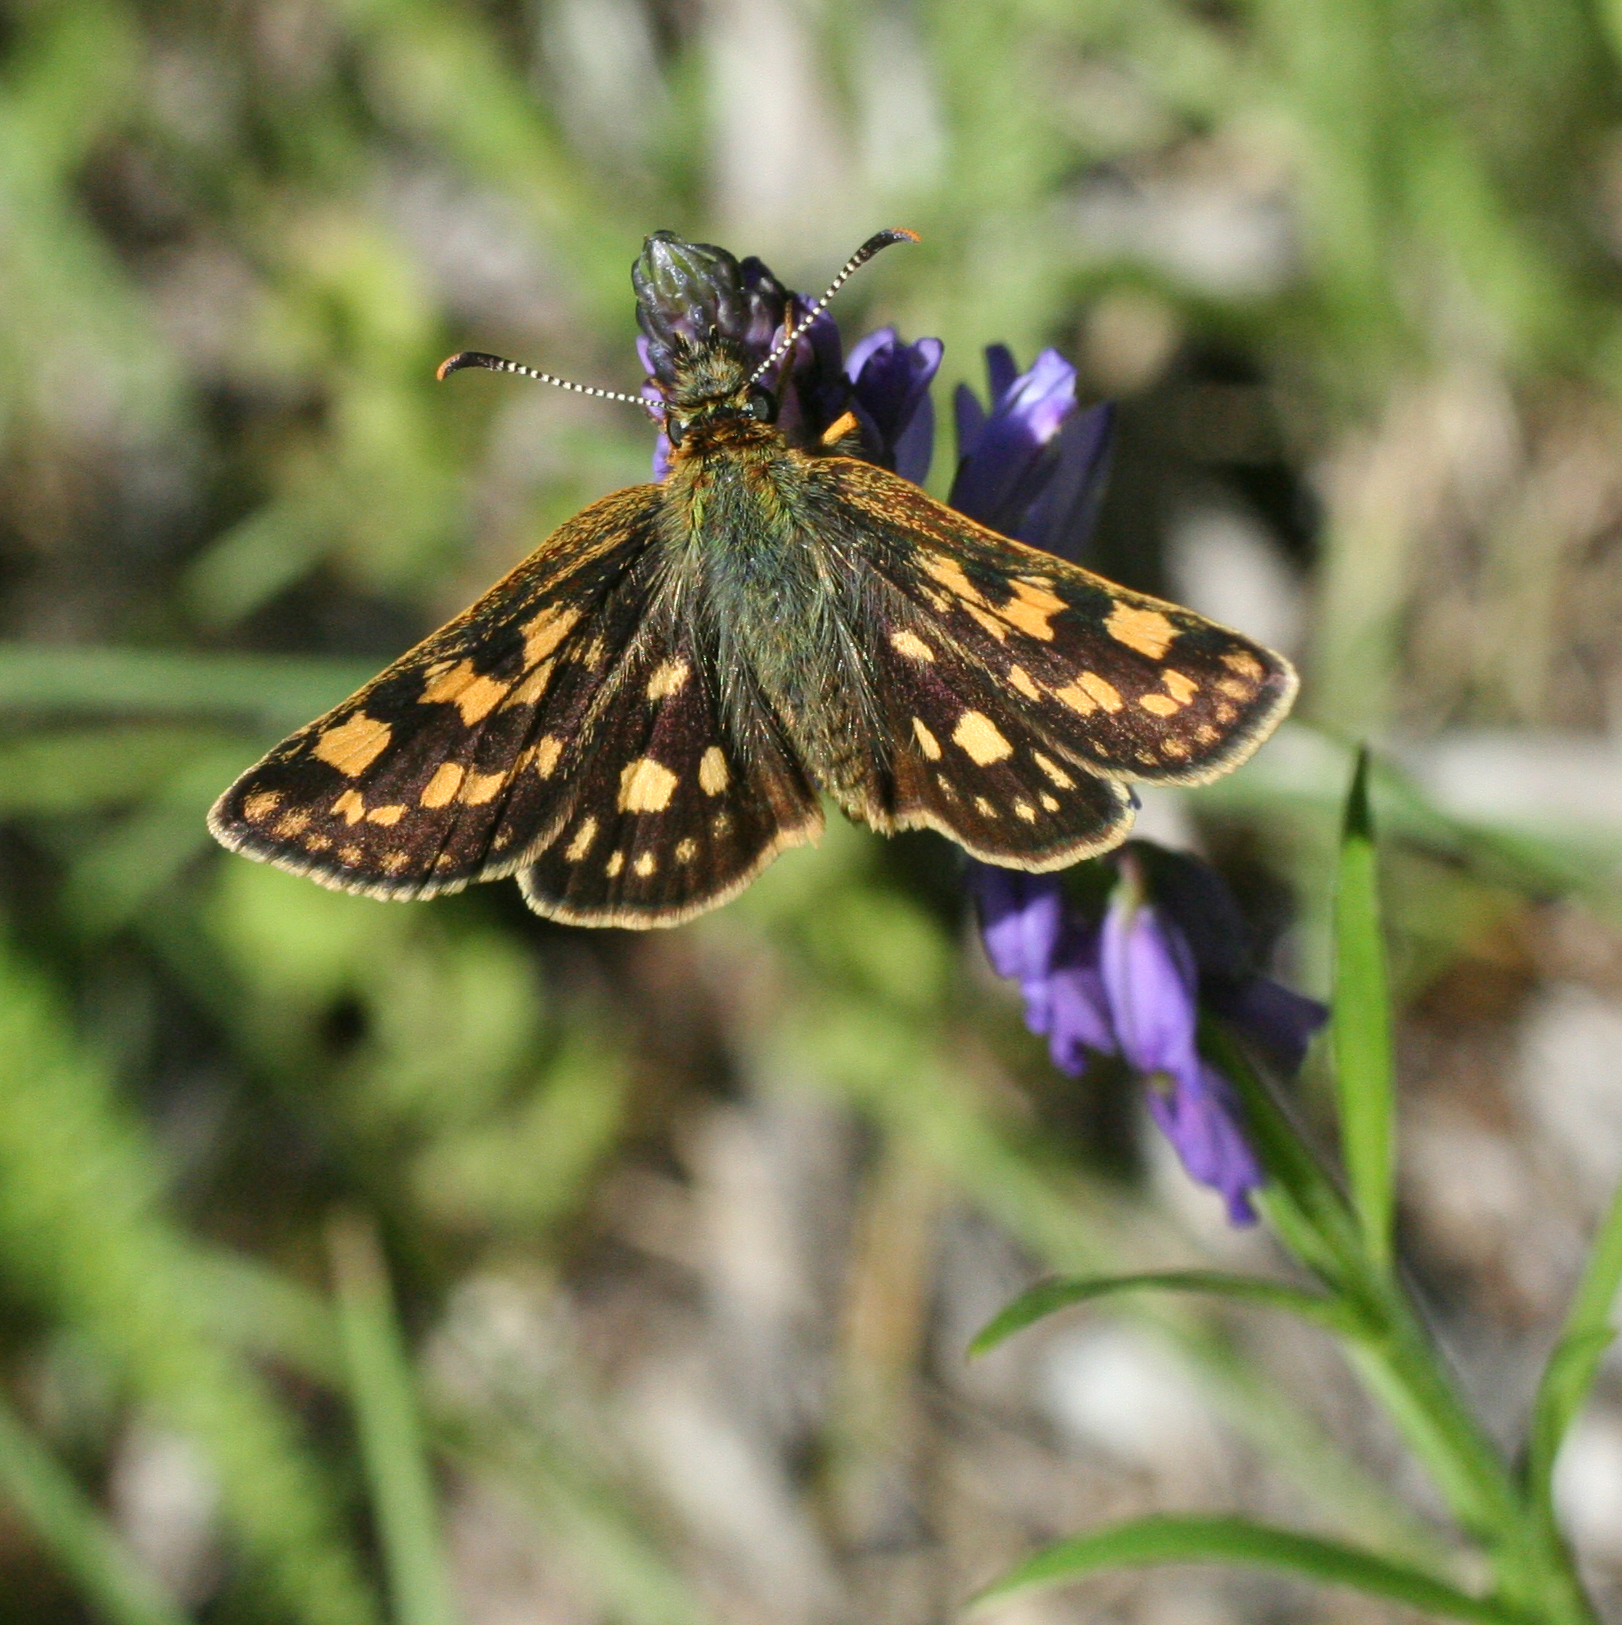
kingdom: Animalia
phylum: Arthropoda
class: Insecta
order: Lepidoptera
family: Hesperiidae
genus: Carterocephalus
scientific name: Carterocephalus palaemon
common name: Chequered skipper
